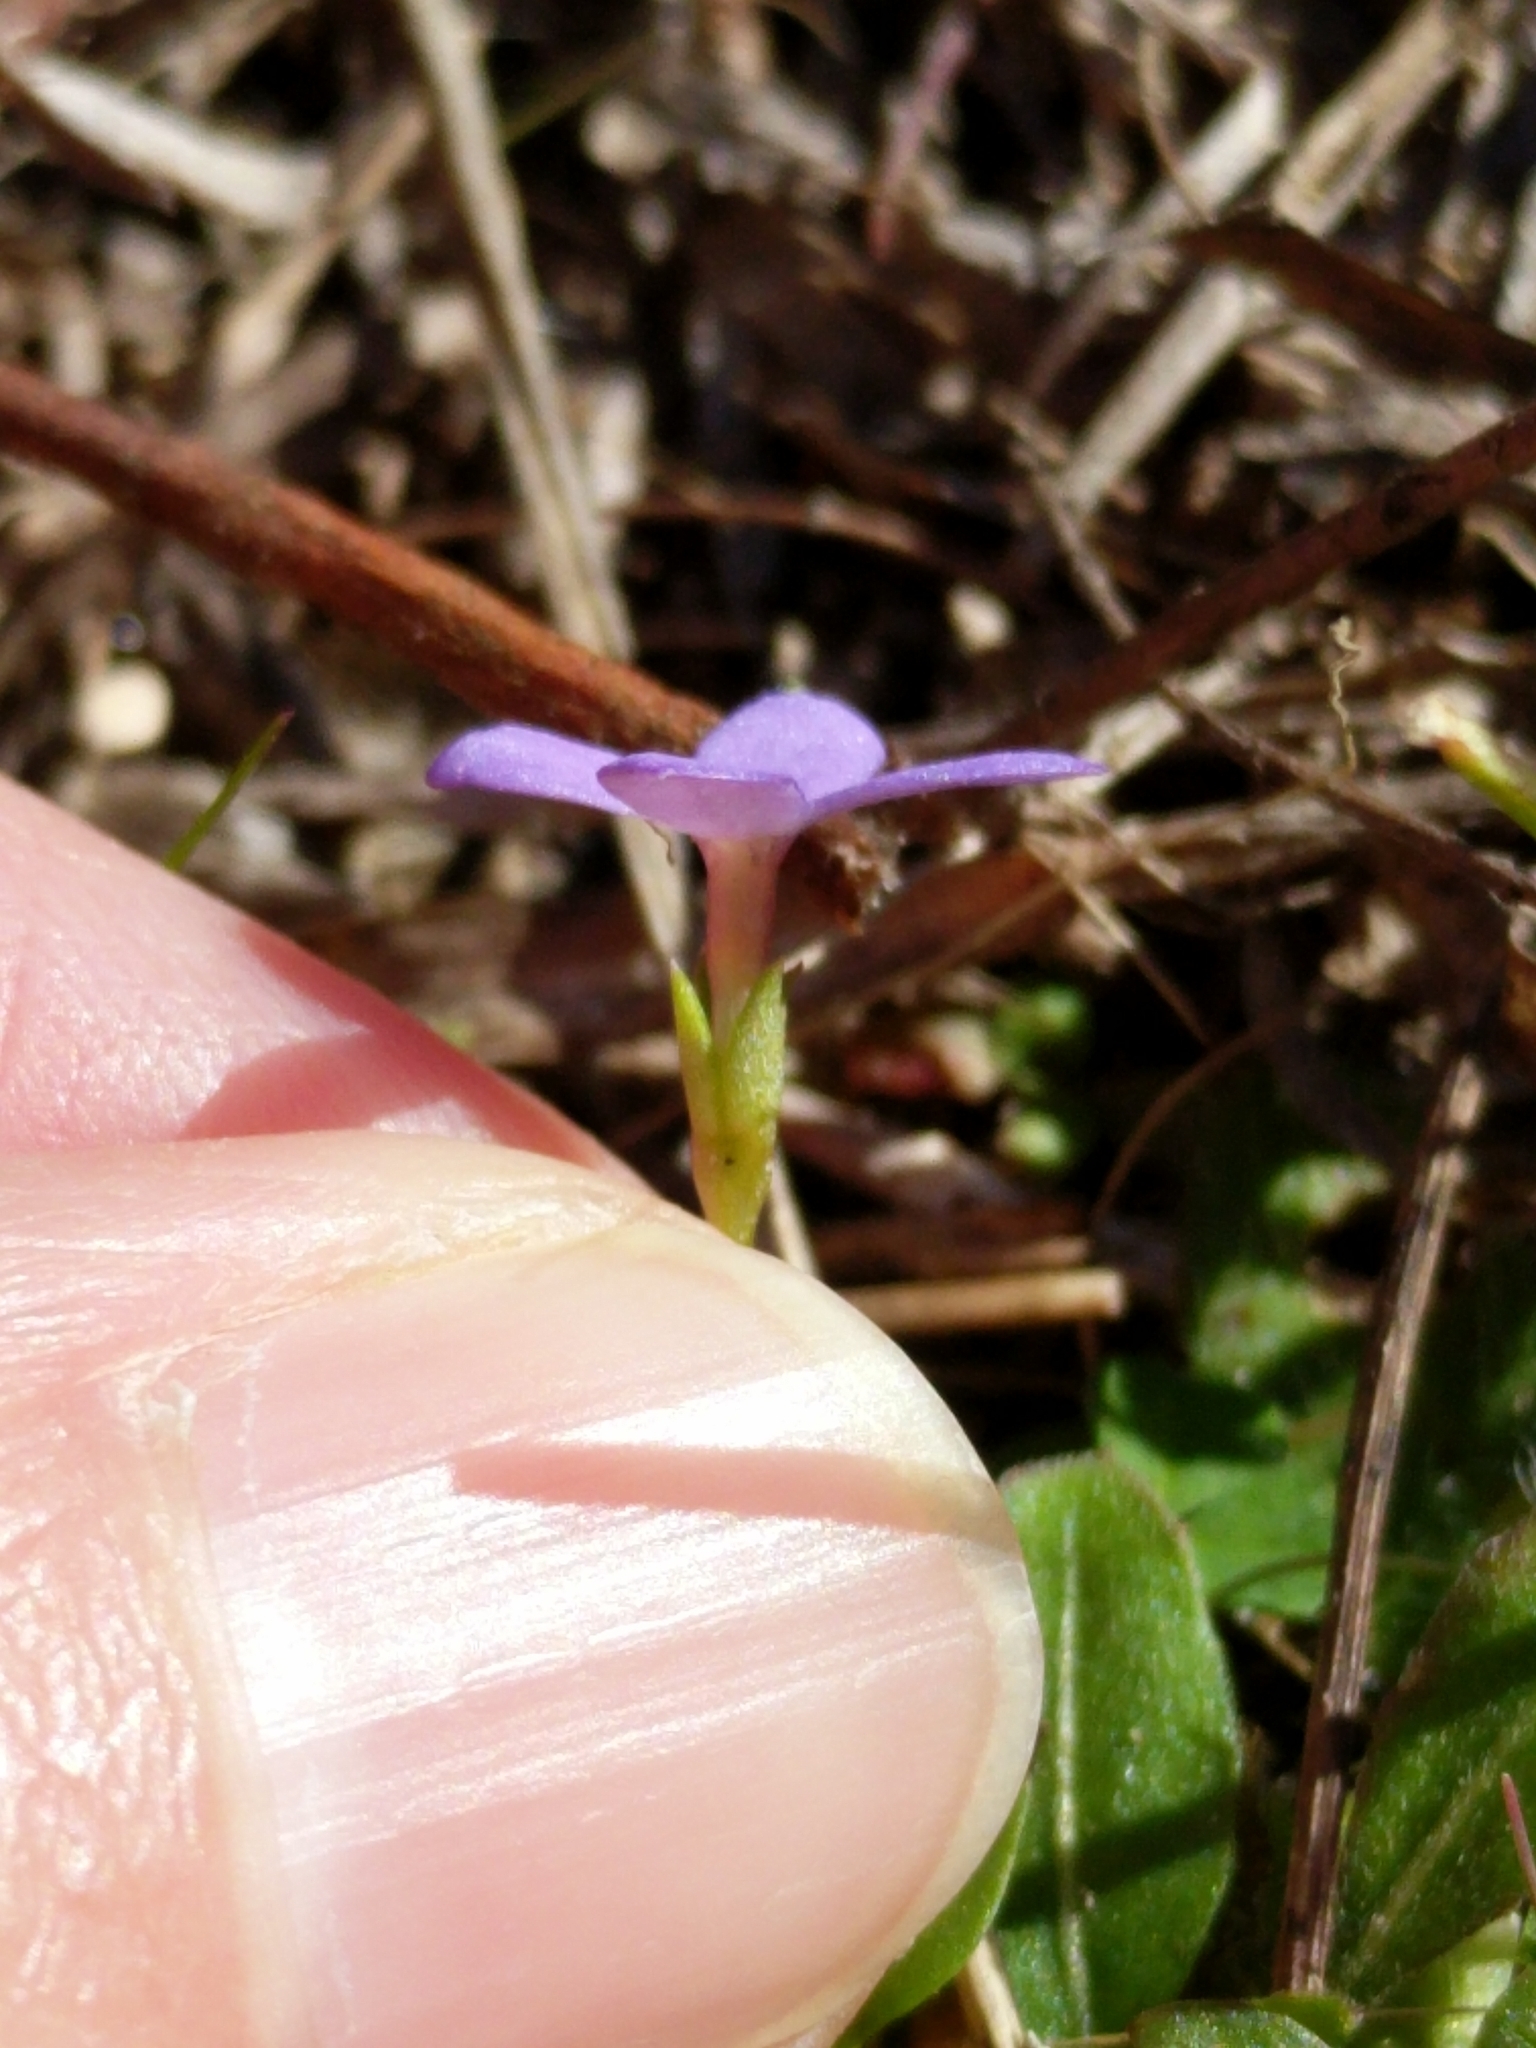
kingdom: Plantae
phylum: Tracheophyta
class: Magnoliopsida
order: Gentianales
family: Rubiaceae
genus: Houstonia
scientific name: Houstonia pusilla
